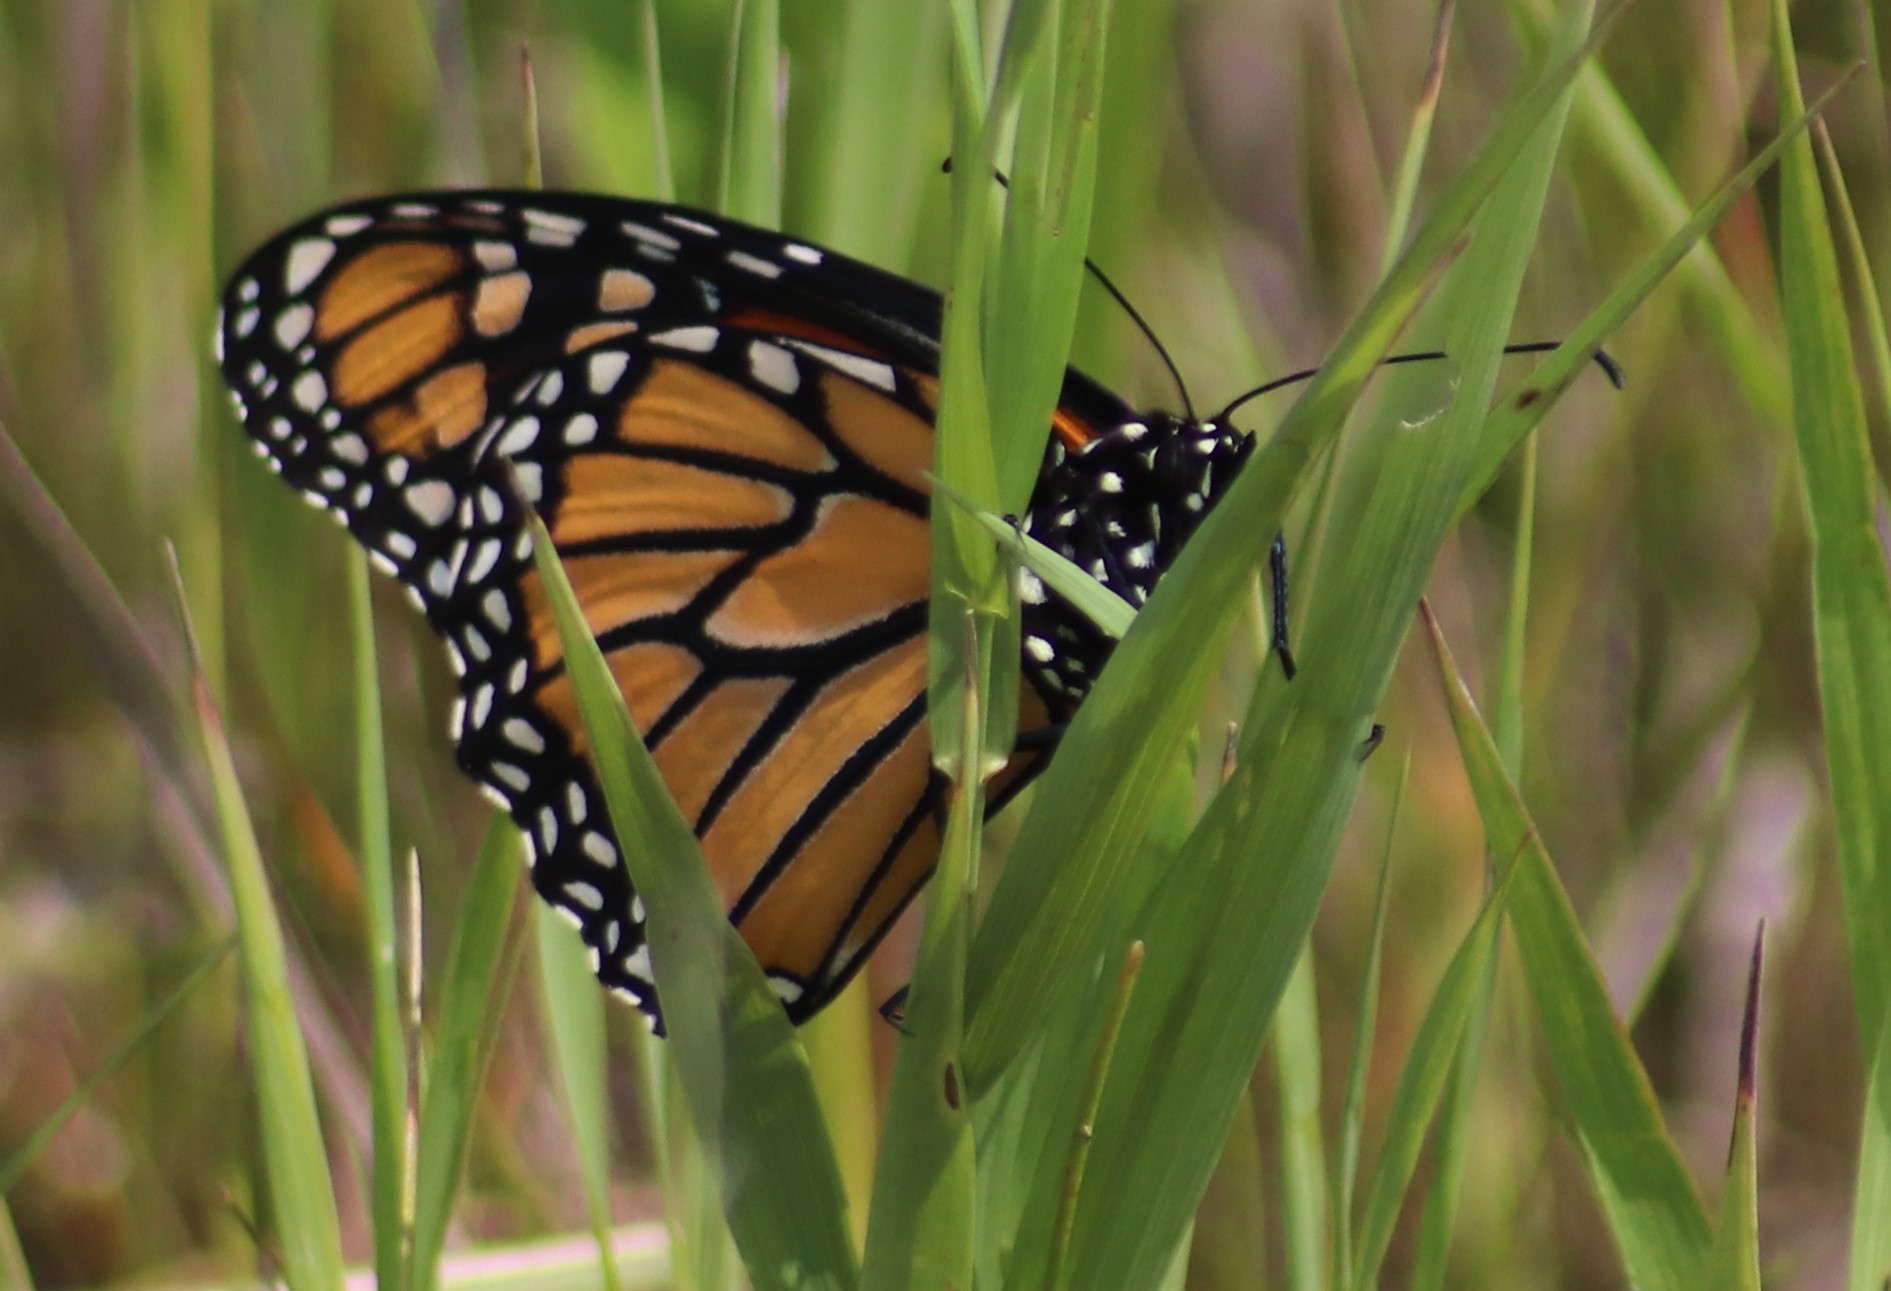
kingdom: Animalia
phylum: Arthropoda
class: Insecta
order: Lepidoptera
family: Nymphalidae
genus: Danaus
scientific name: Danaus plexippus
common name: Monarch
